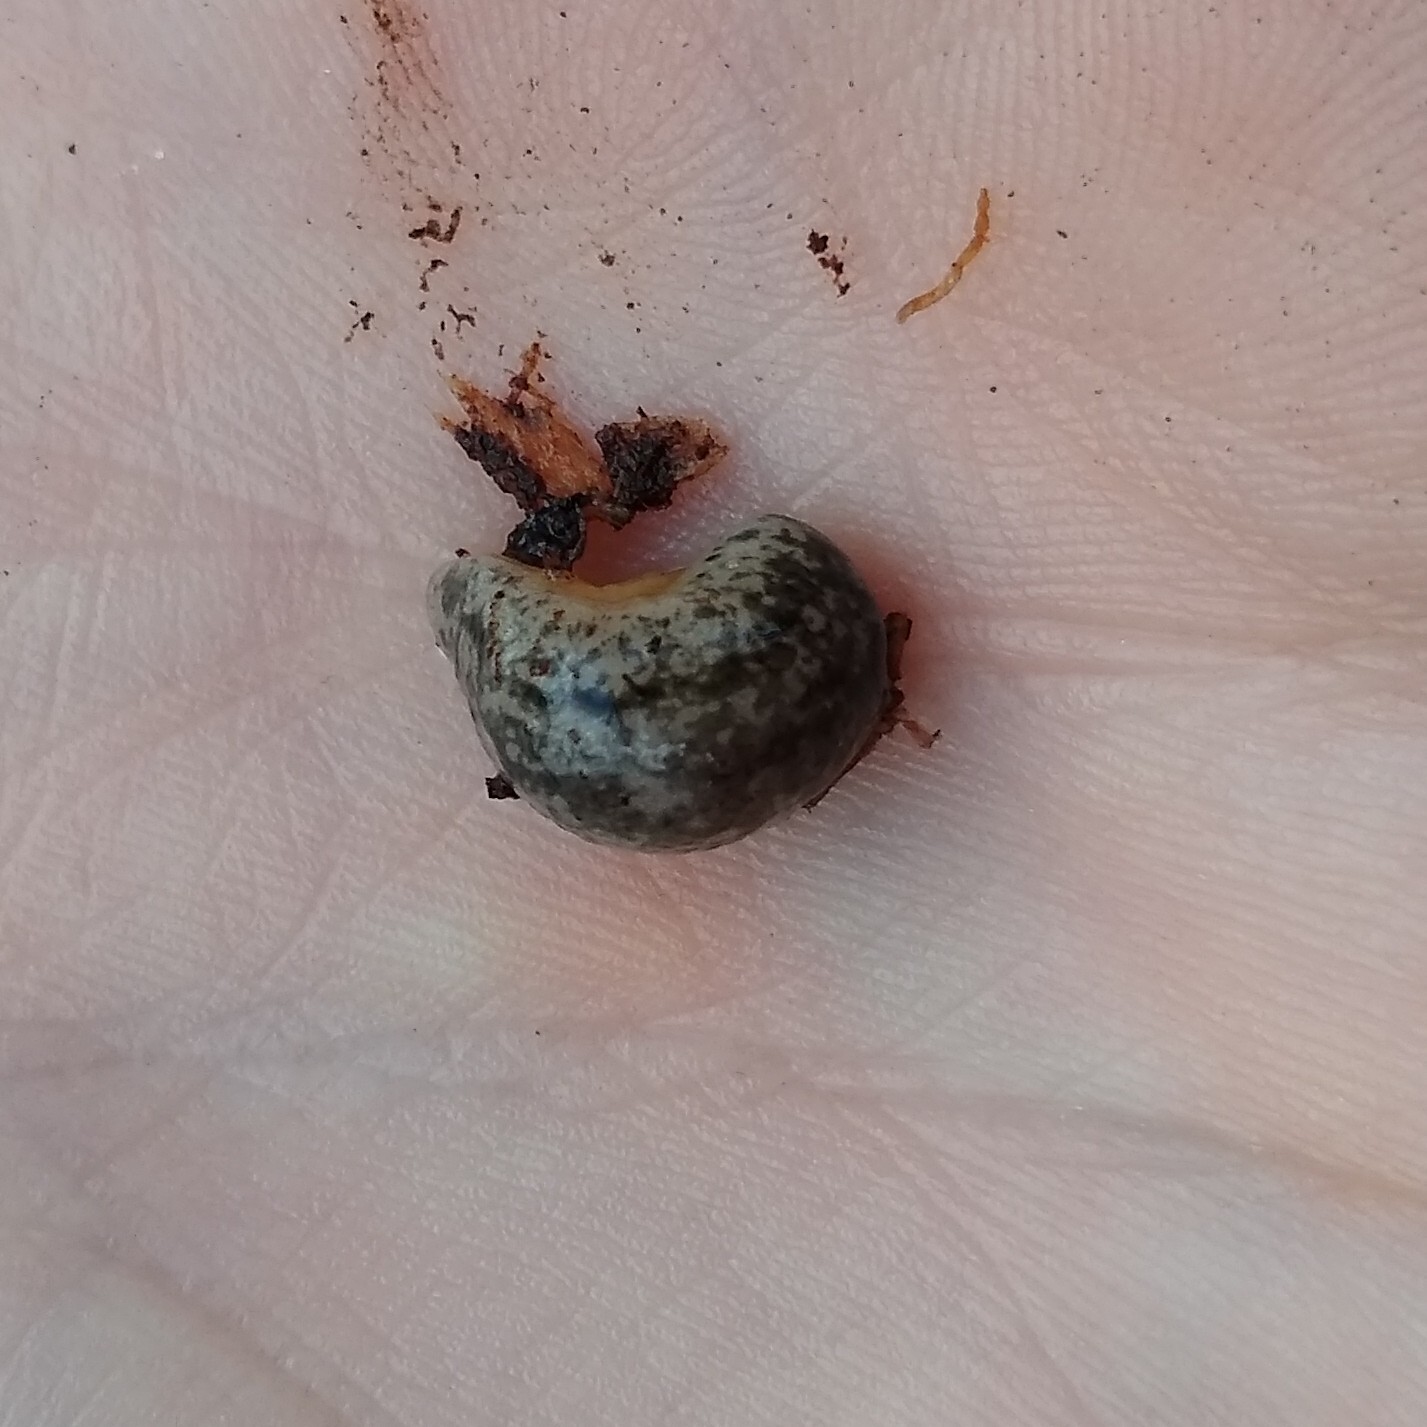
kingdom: Animalia
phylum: Mollusca
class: Gastropoda
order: Stylommatophora
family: Philomycidae
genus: Megapallifera
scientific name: Megapallifera mutabilis
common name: Changeable mantleslug
